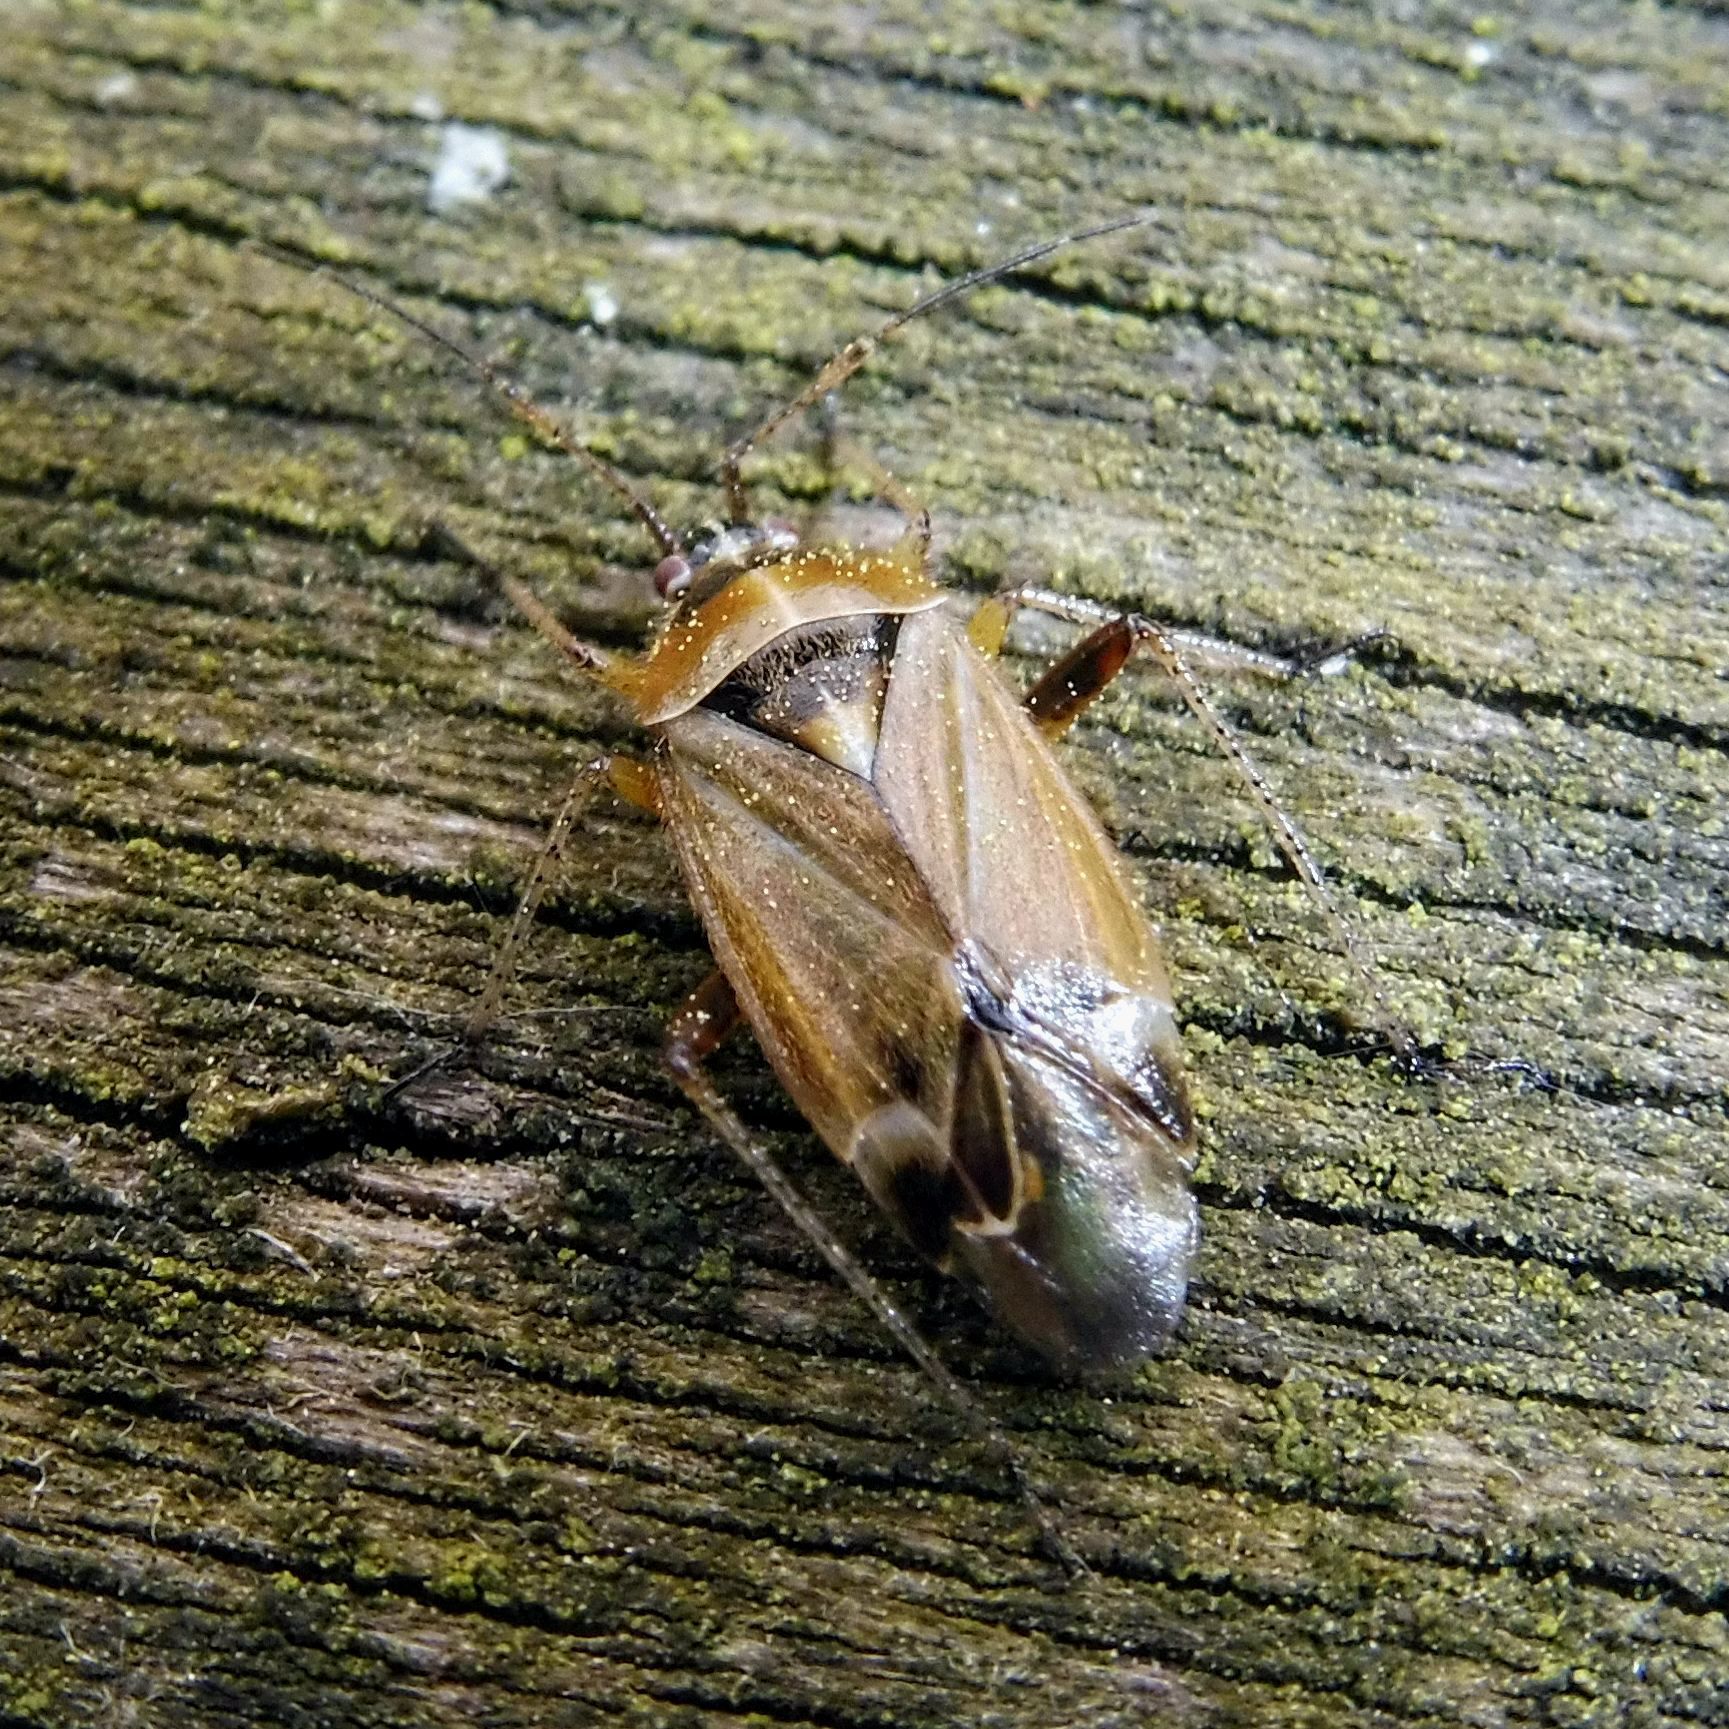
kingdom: Animalia
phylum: Arthropoda
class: Insecta
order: Hemiptera
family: Miridae
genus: Harpocera
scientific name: Harpocera thoracica
